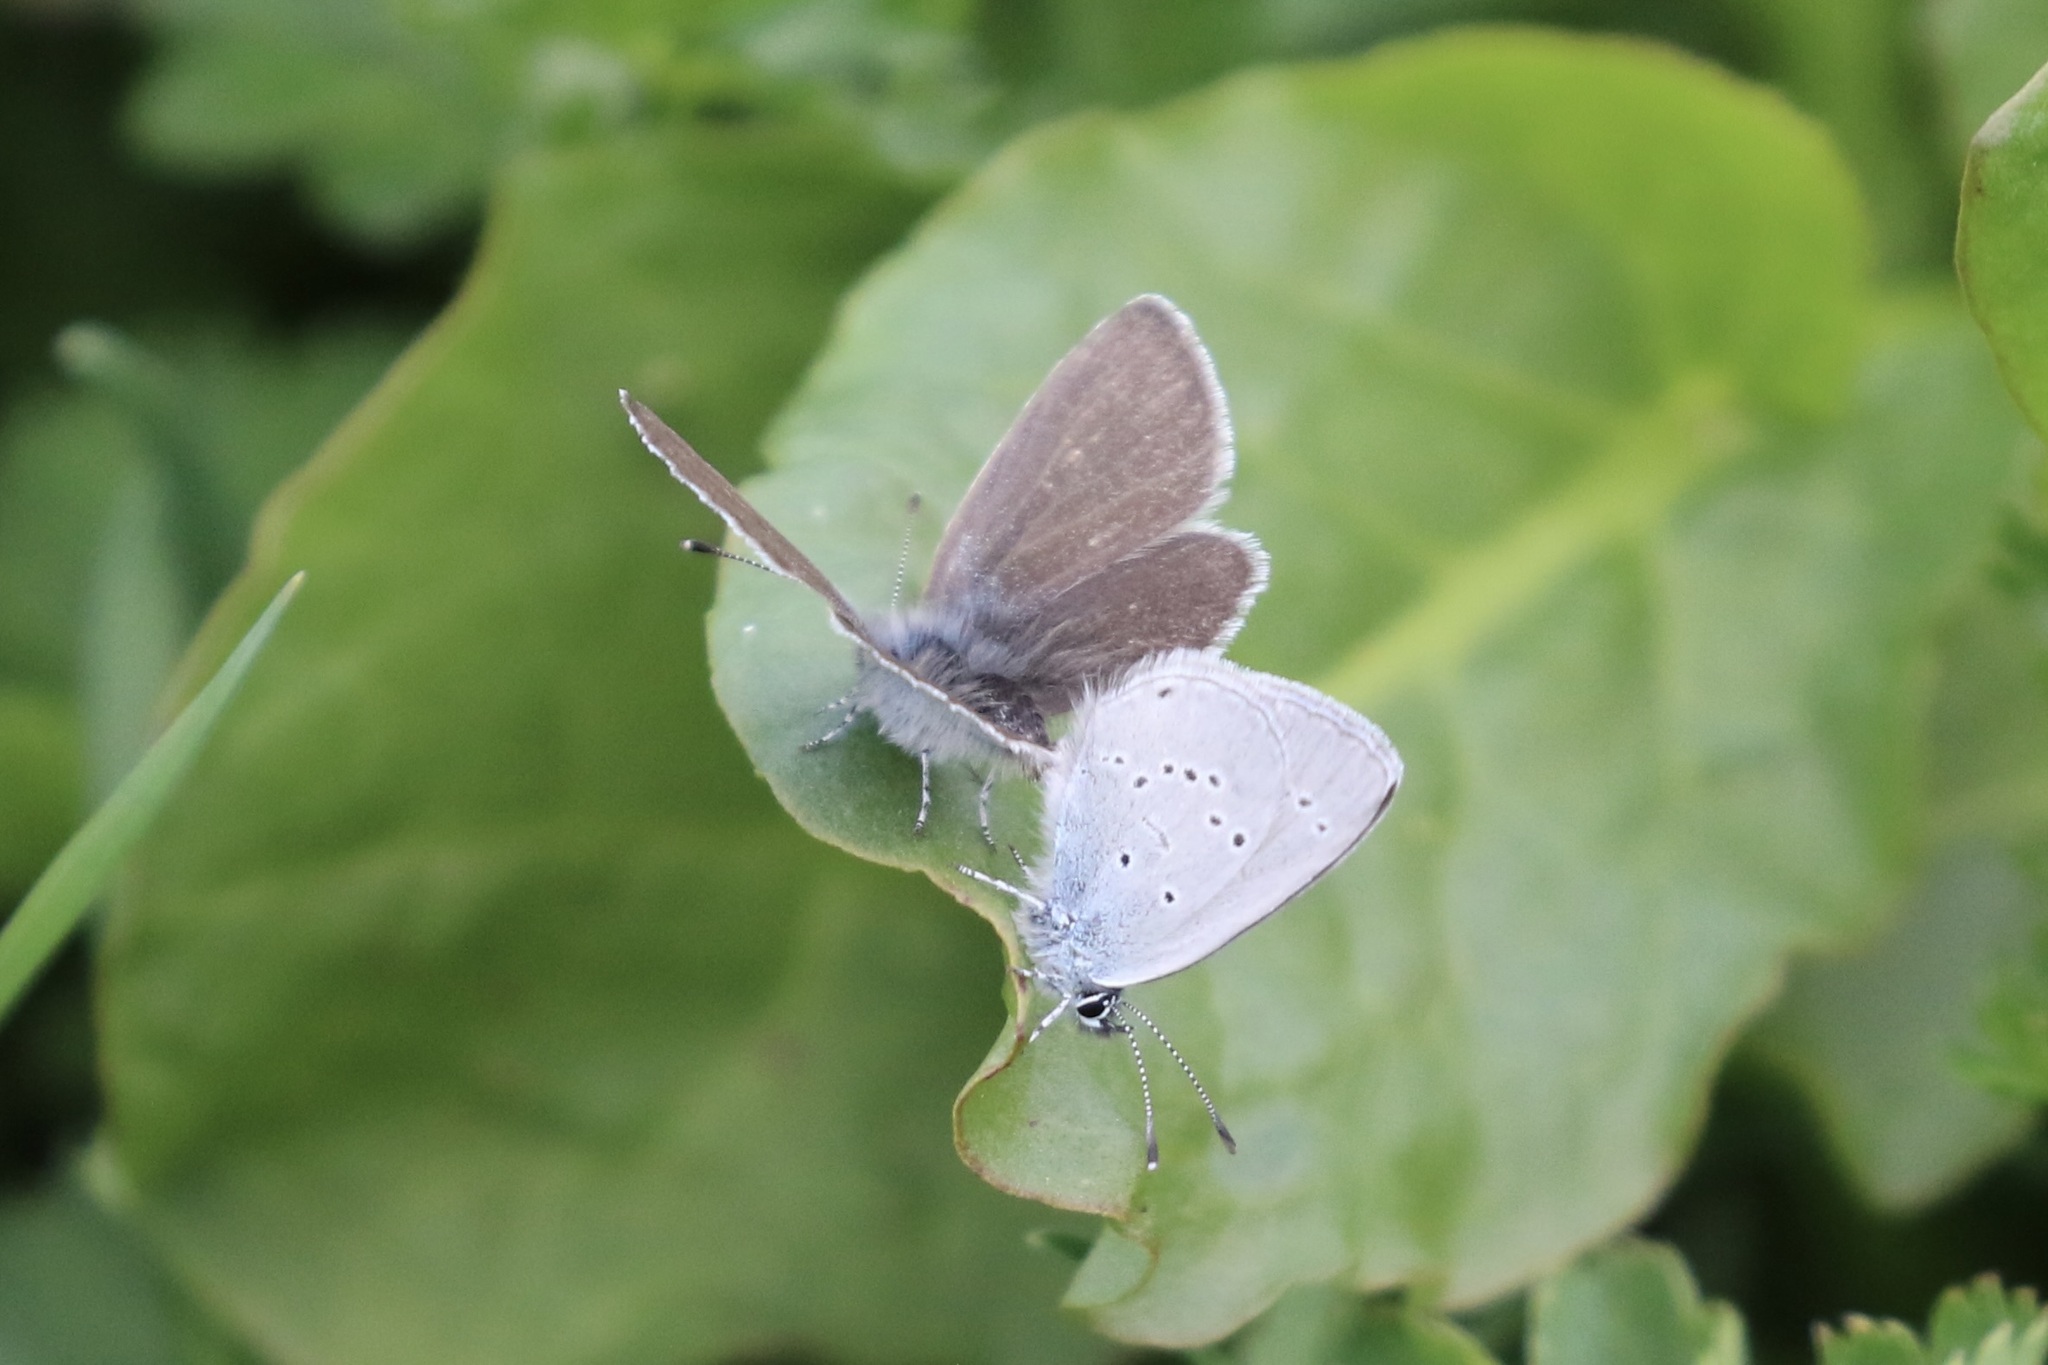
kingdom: Animalia
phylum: Arthropoda
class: Insecta
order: Lepidoptera
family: Lycaenidae
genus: Cupido
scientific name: Cupido minimus
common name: Small blue
